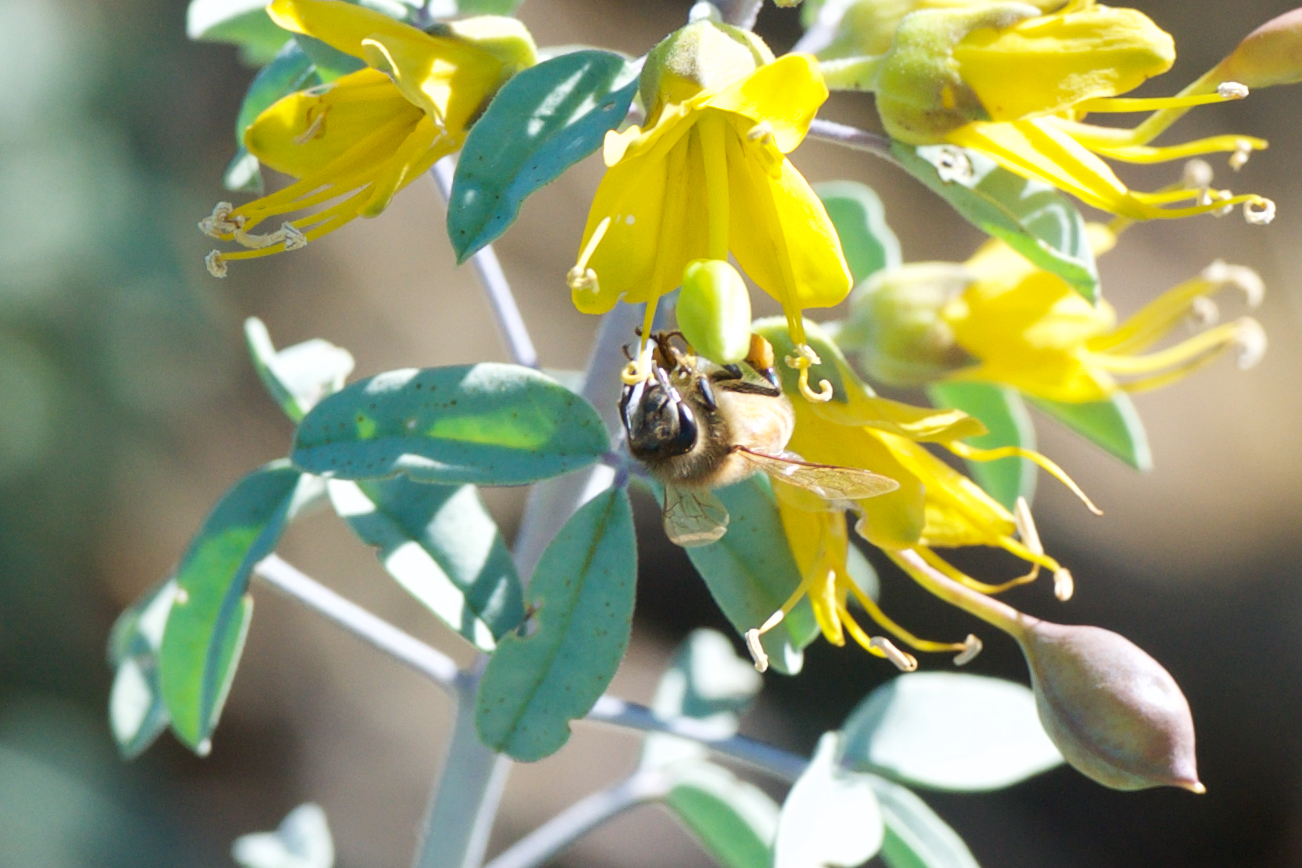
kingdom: Animalia
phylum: Arthropoda
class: Insecta
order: Hymenoptera
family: Apidae
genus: Apis
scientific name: Apis mellifera
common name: Honey bee
